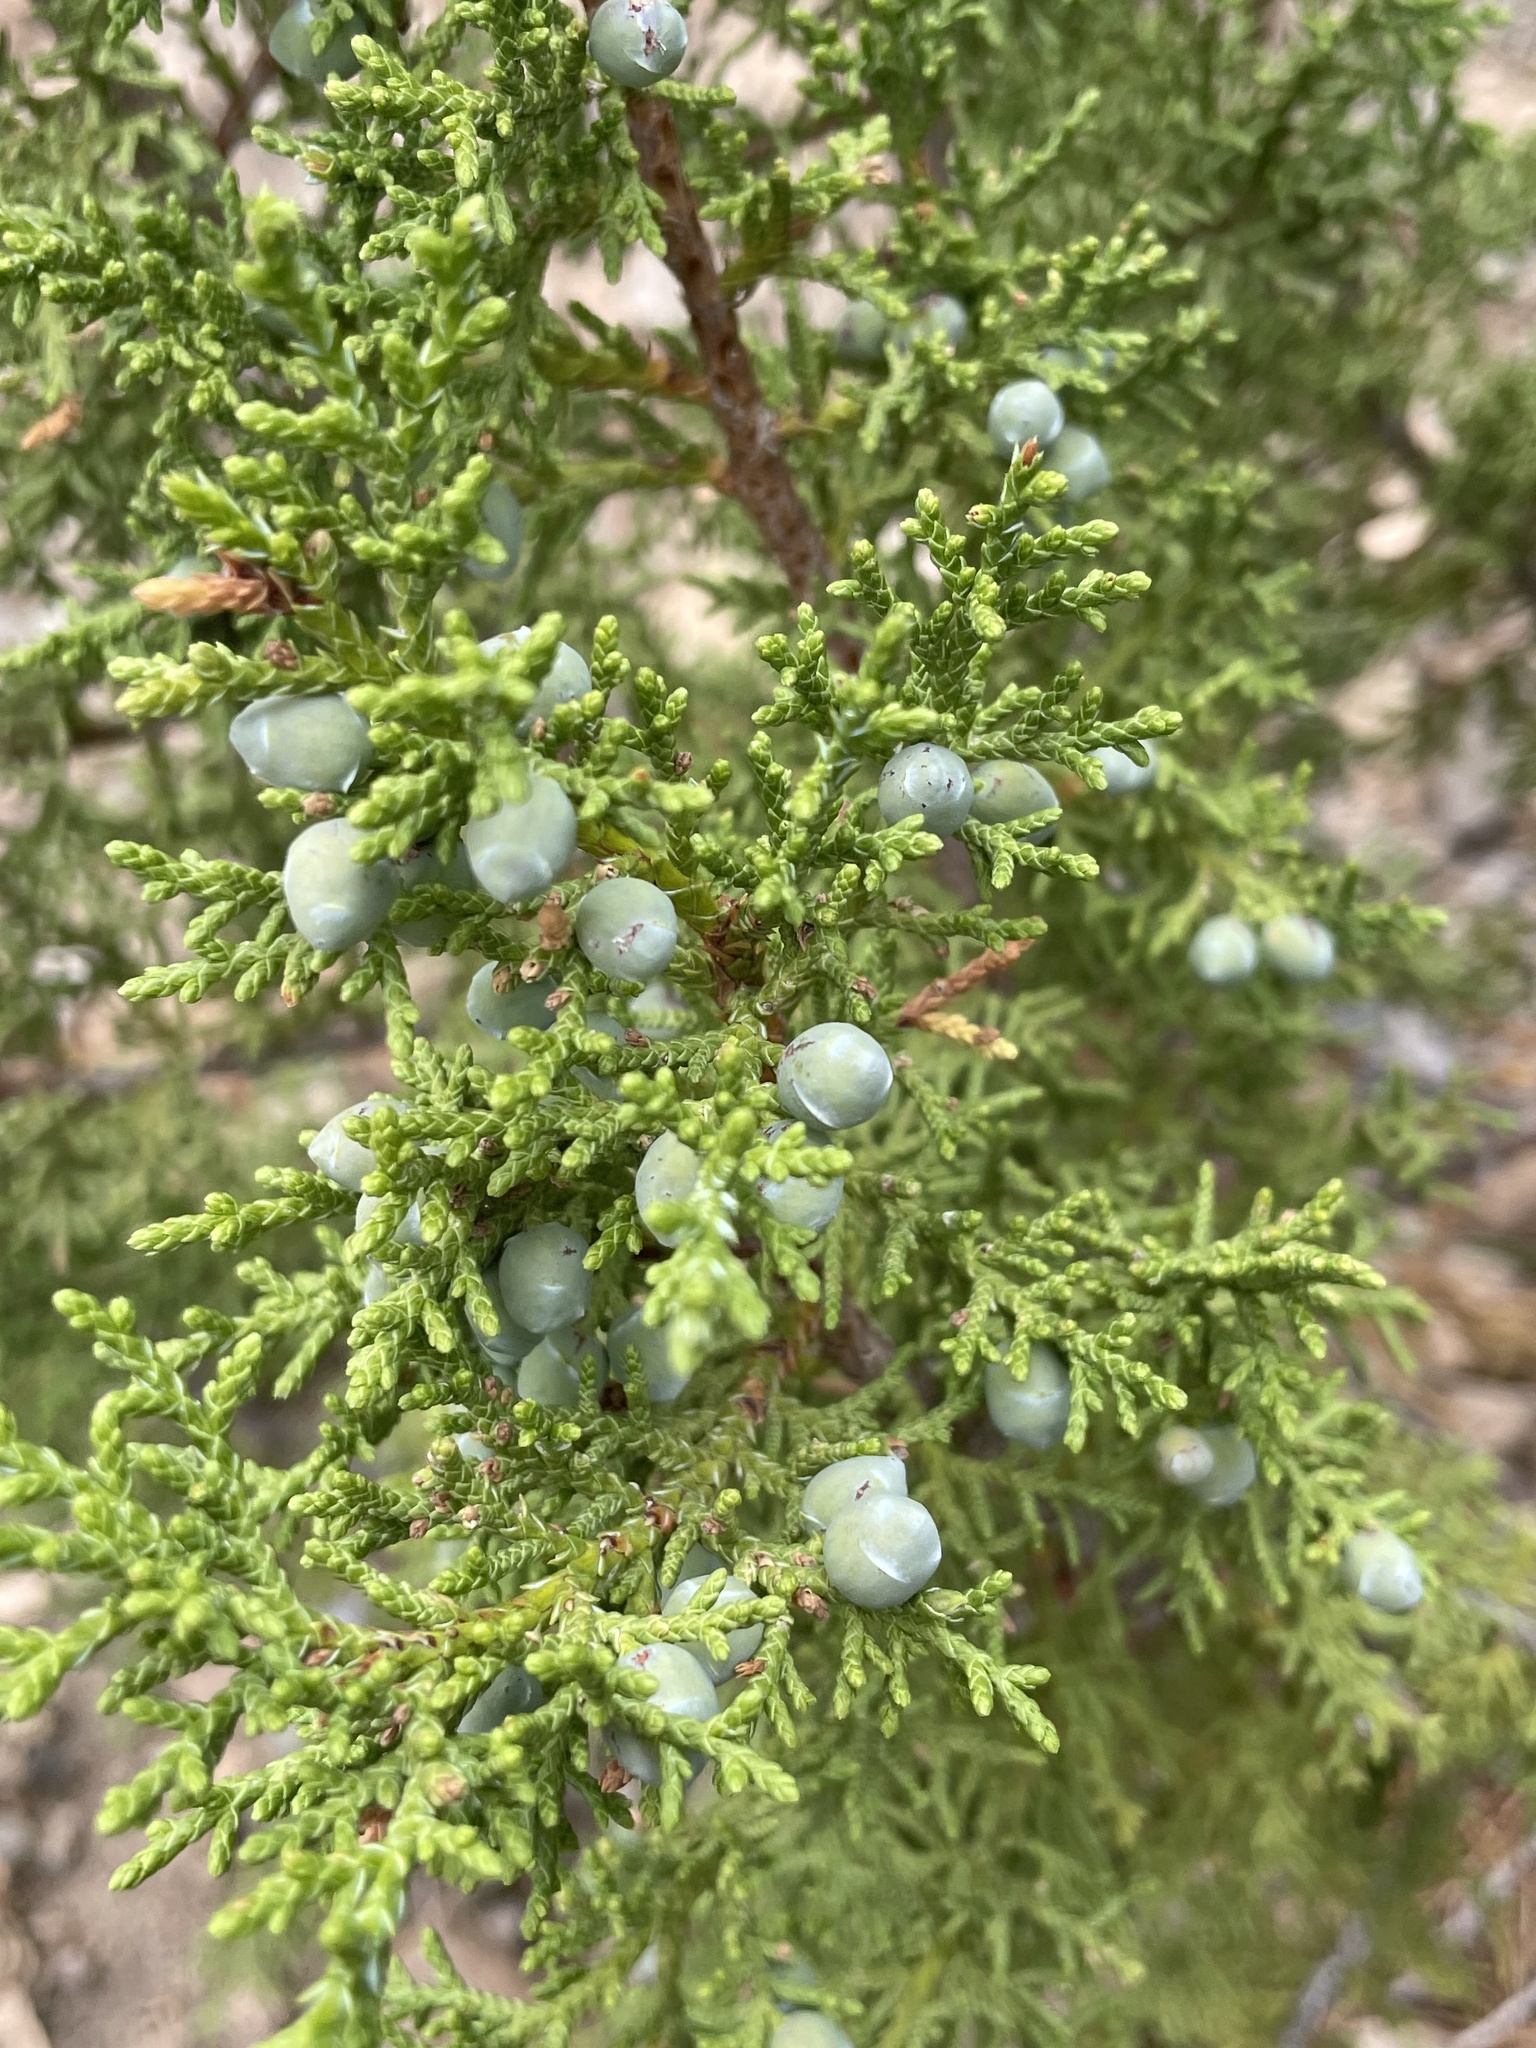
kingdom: Plantae
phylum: Tracheophyta
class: Pinopsida
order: Pinales
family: Cupressaceae
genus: Juniperus
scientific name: Juniperus monosperma
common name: One-seed juniper
